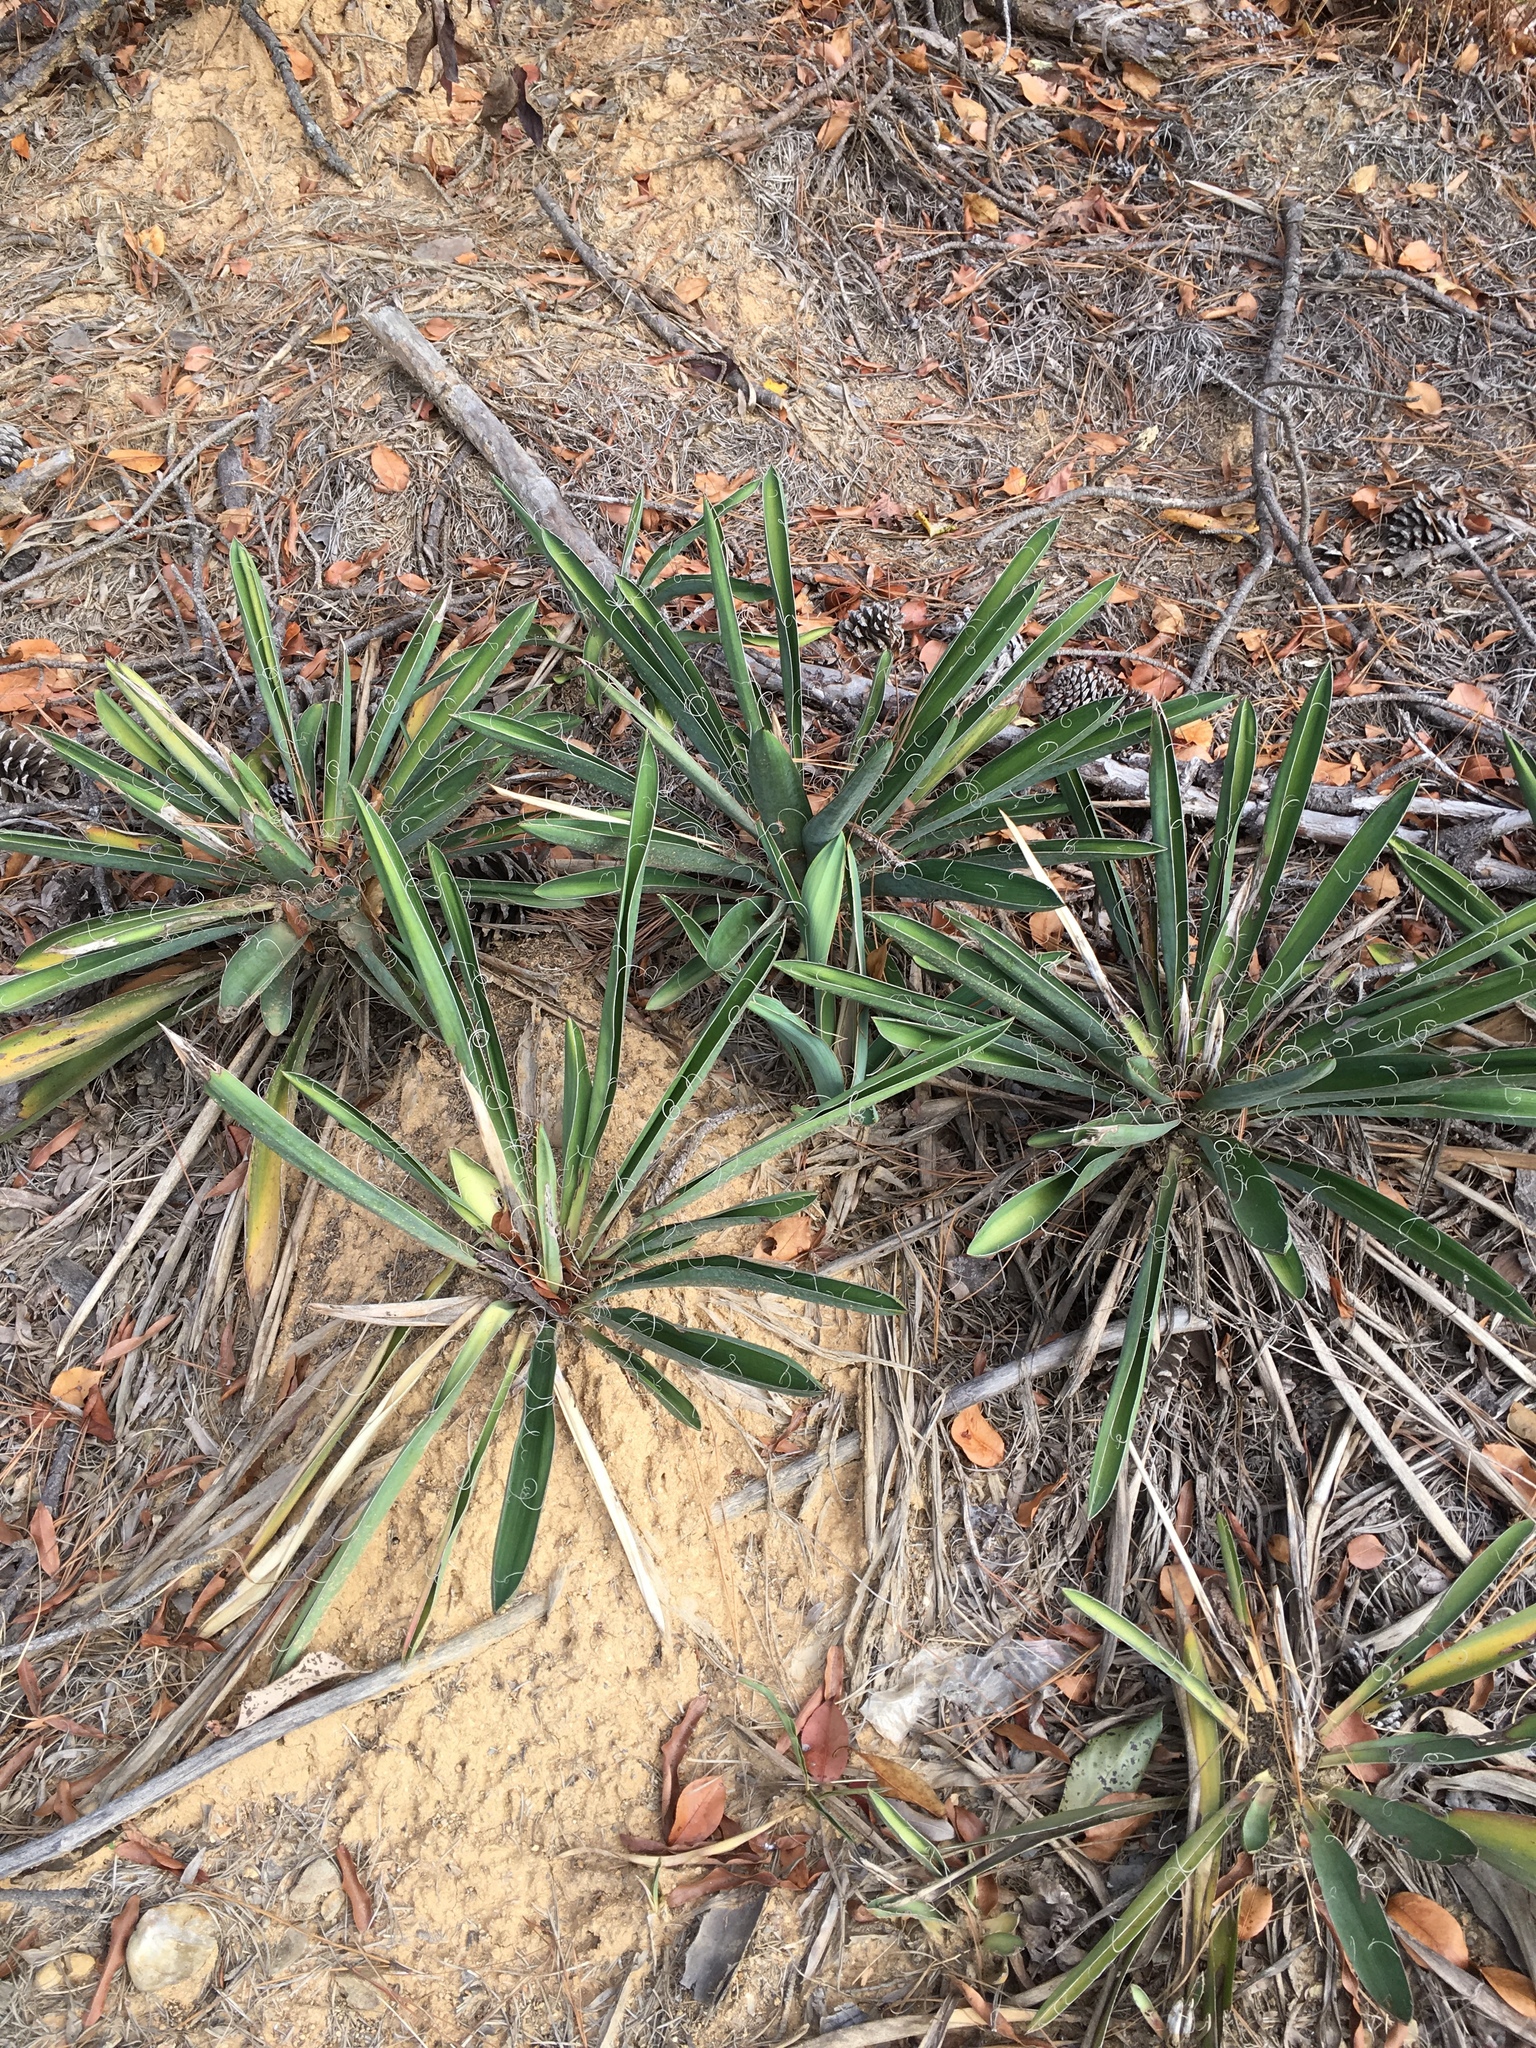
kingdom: Plantae
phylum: Tracheophyta
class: Liliopsida
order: Asparagales
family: Asparagaceae
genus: Yucca
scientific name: Yucca flaccida
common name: Adam's-needle
